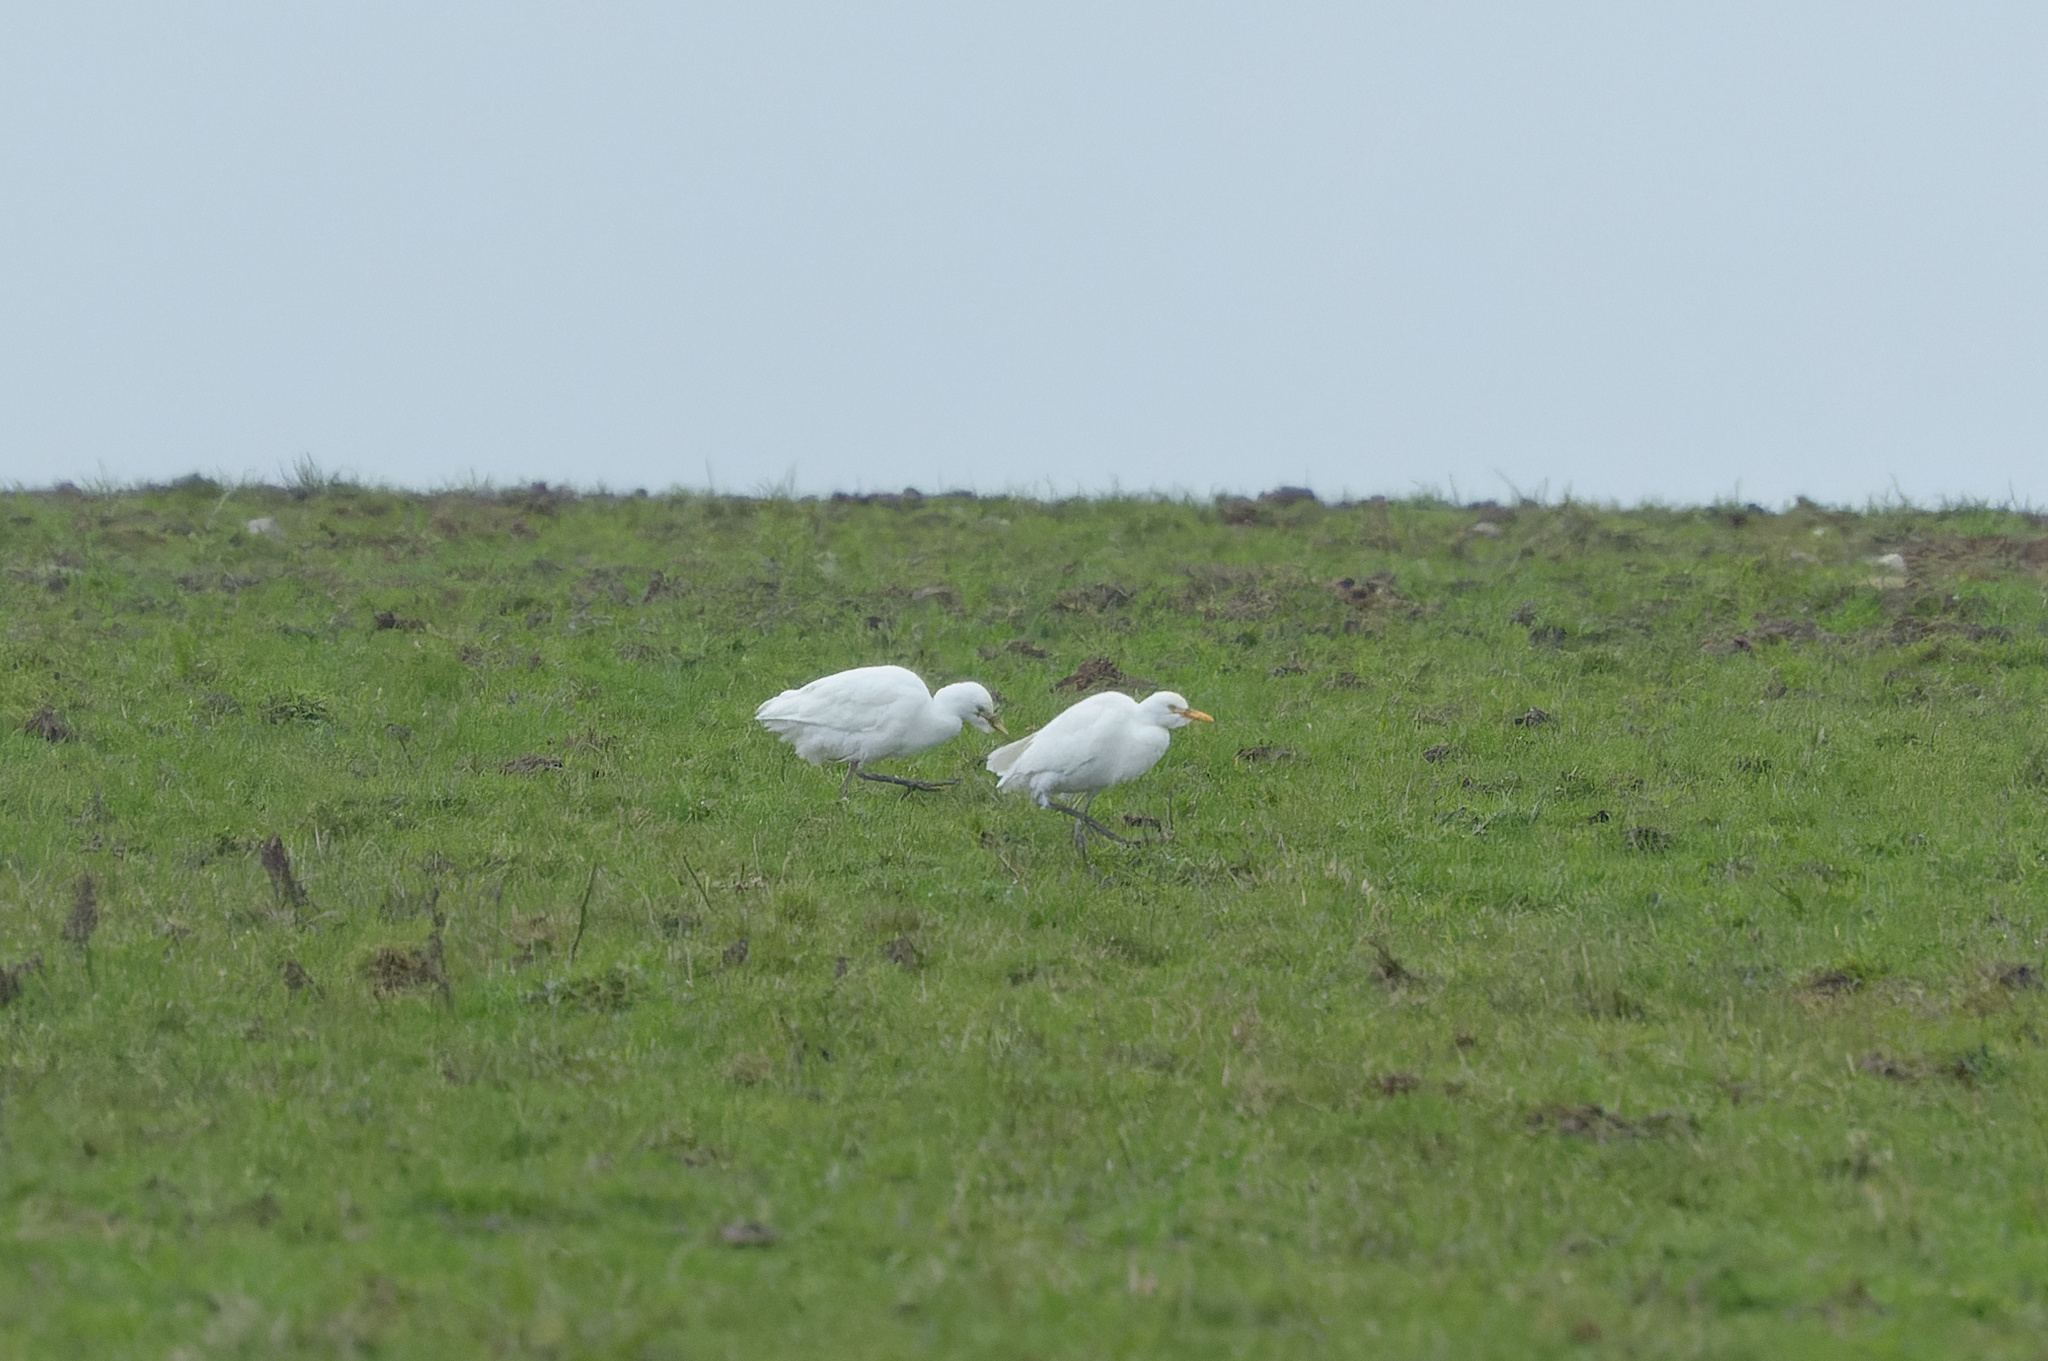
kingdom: Animalia
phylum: Chordata
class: Aves
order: Pelecaniformes
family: Ardeidae
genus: Bubulcus
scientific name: Bubulcus ibis
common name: Cattle egret
